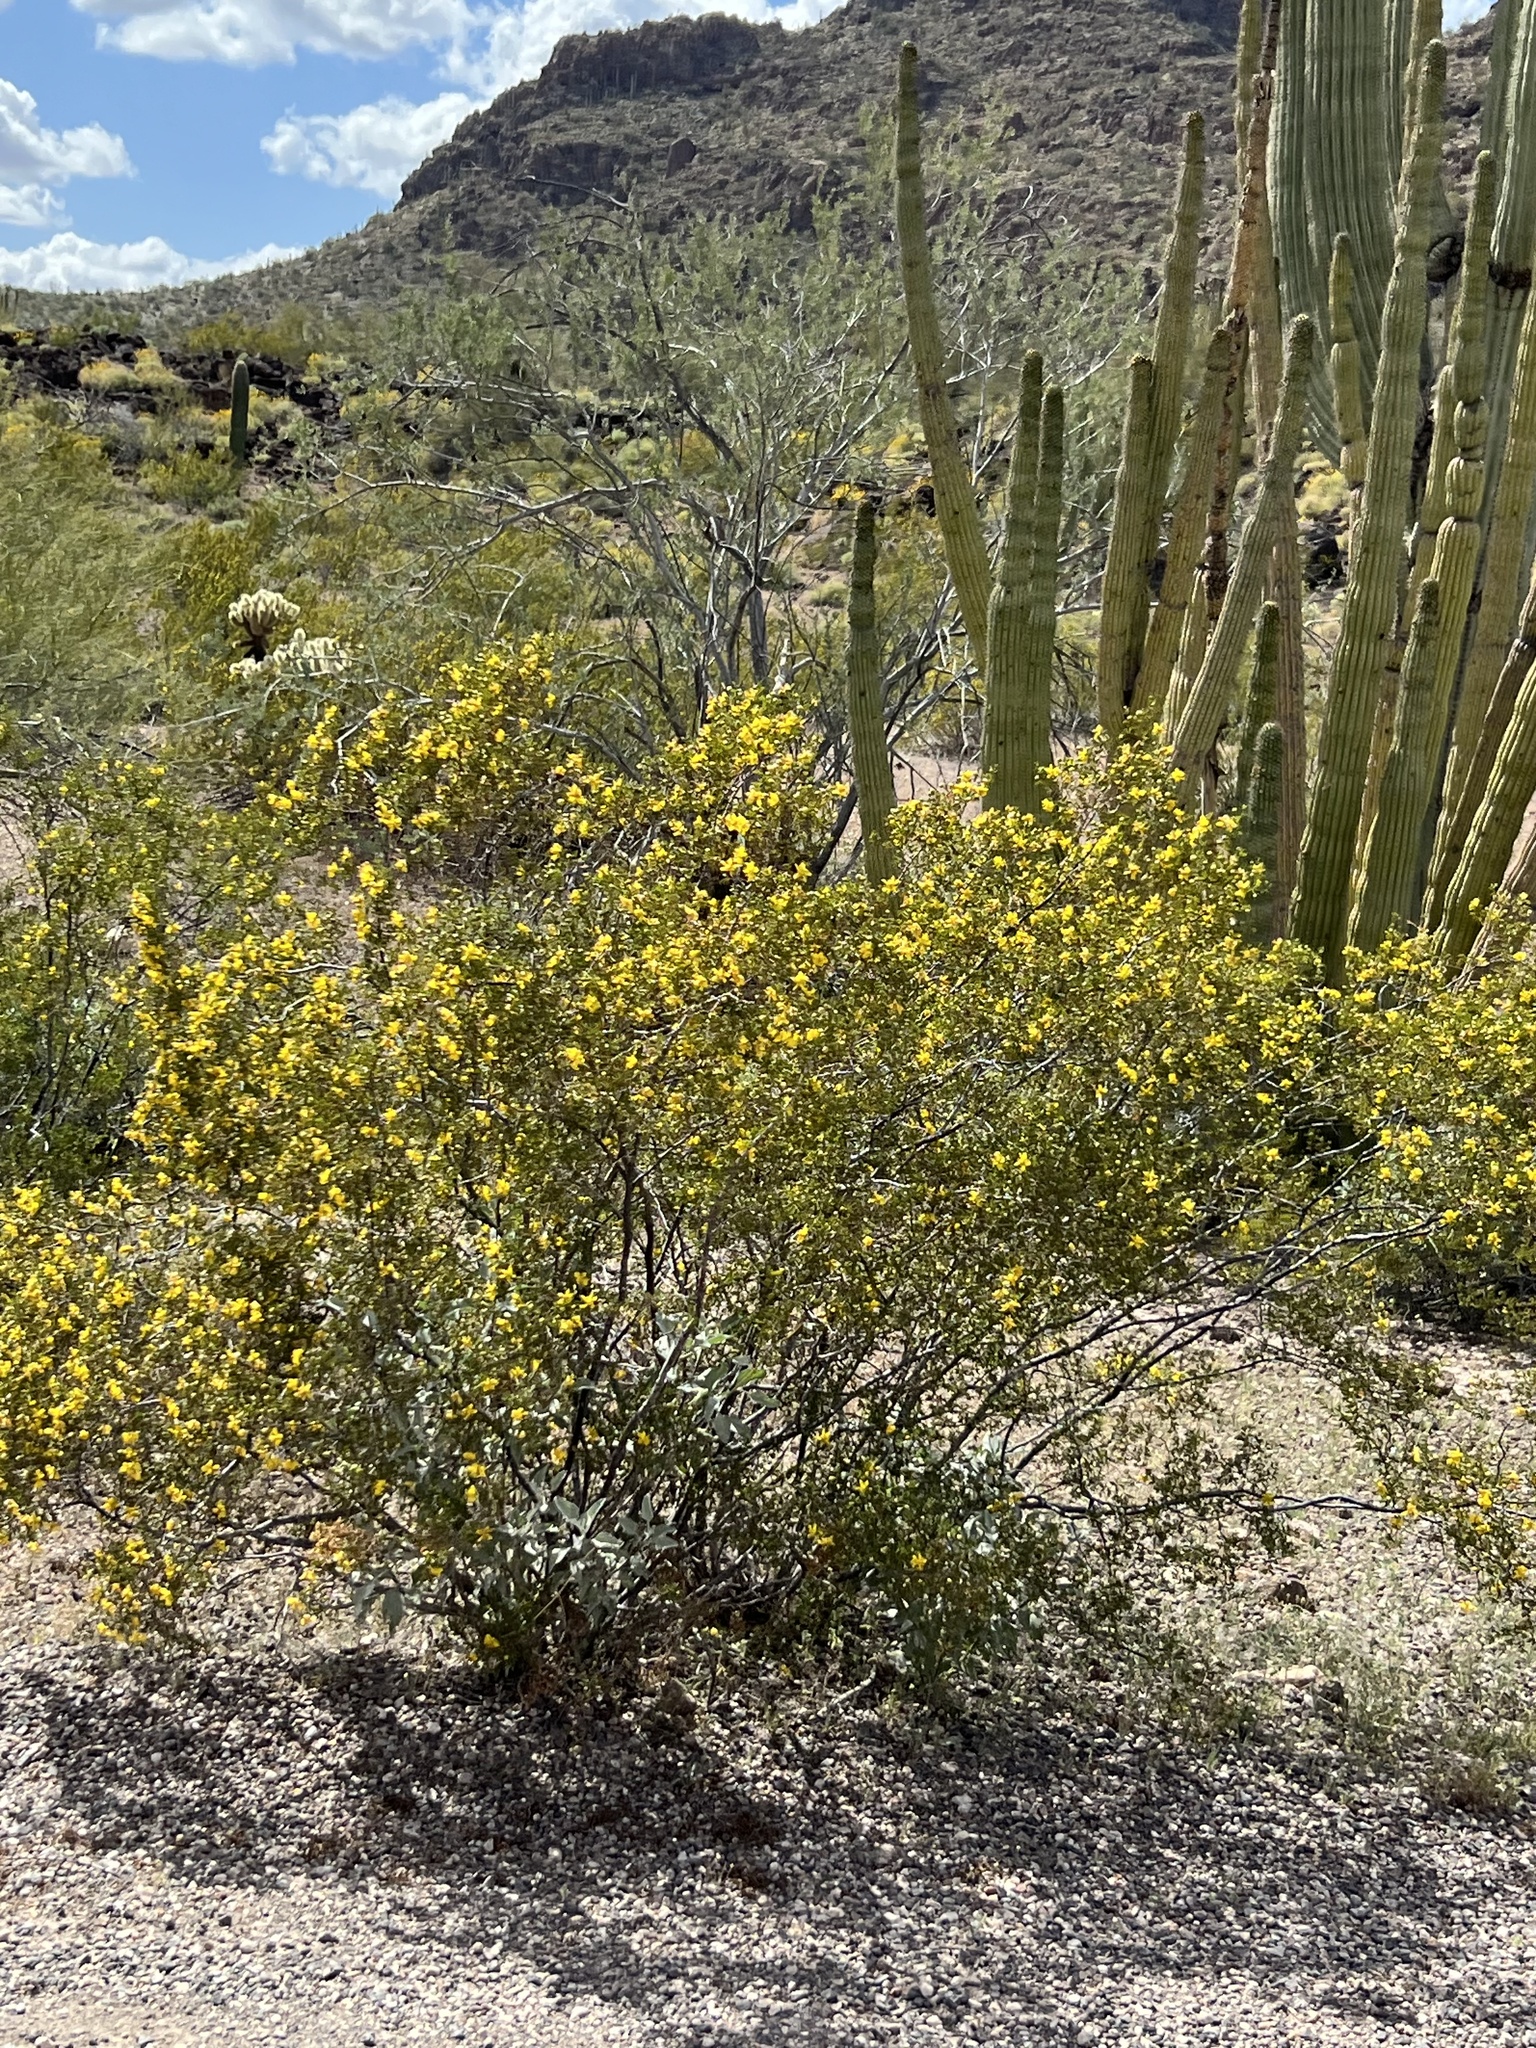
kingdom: Plantae
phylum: Tracheophyta
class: Magnoliopsida
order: Zygophyllales
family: Zygophyllaceae
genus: Larrea
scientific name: Larrea tridentata
